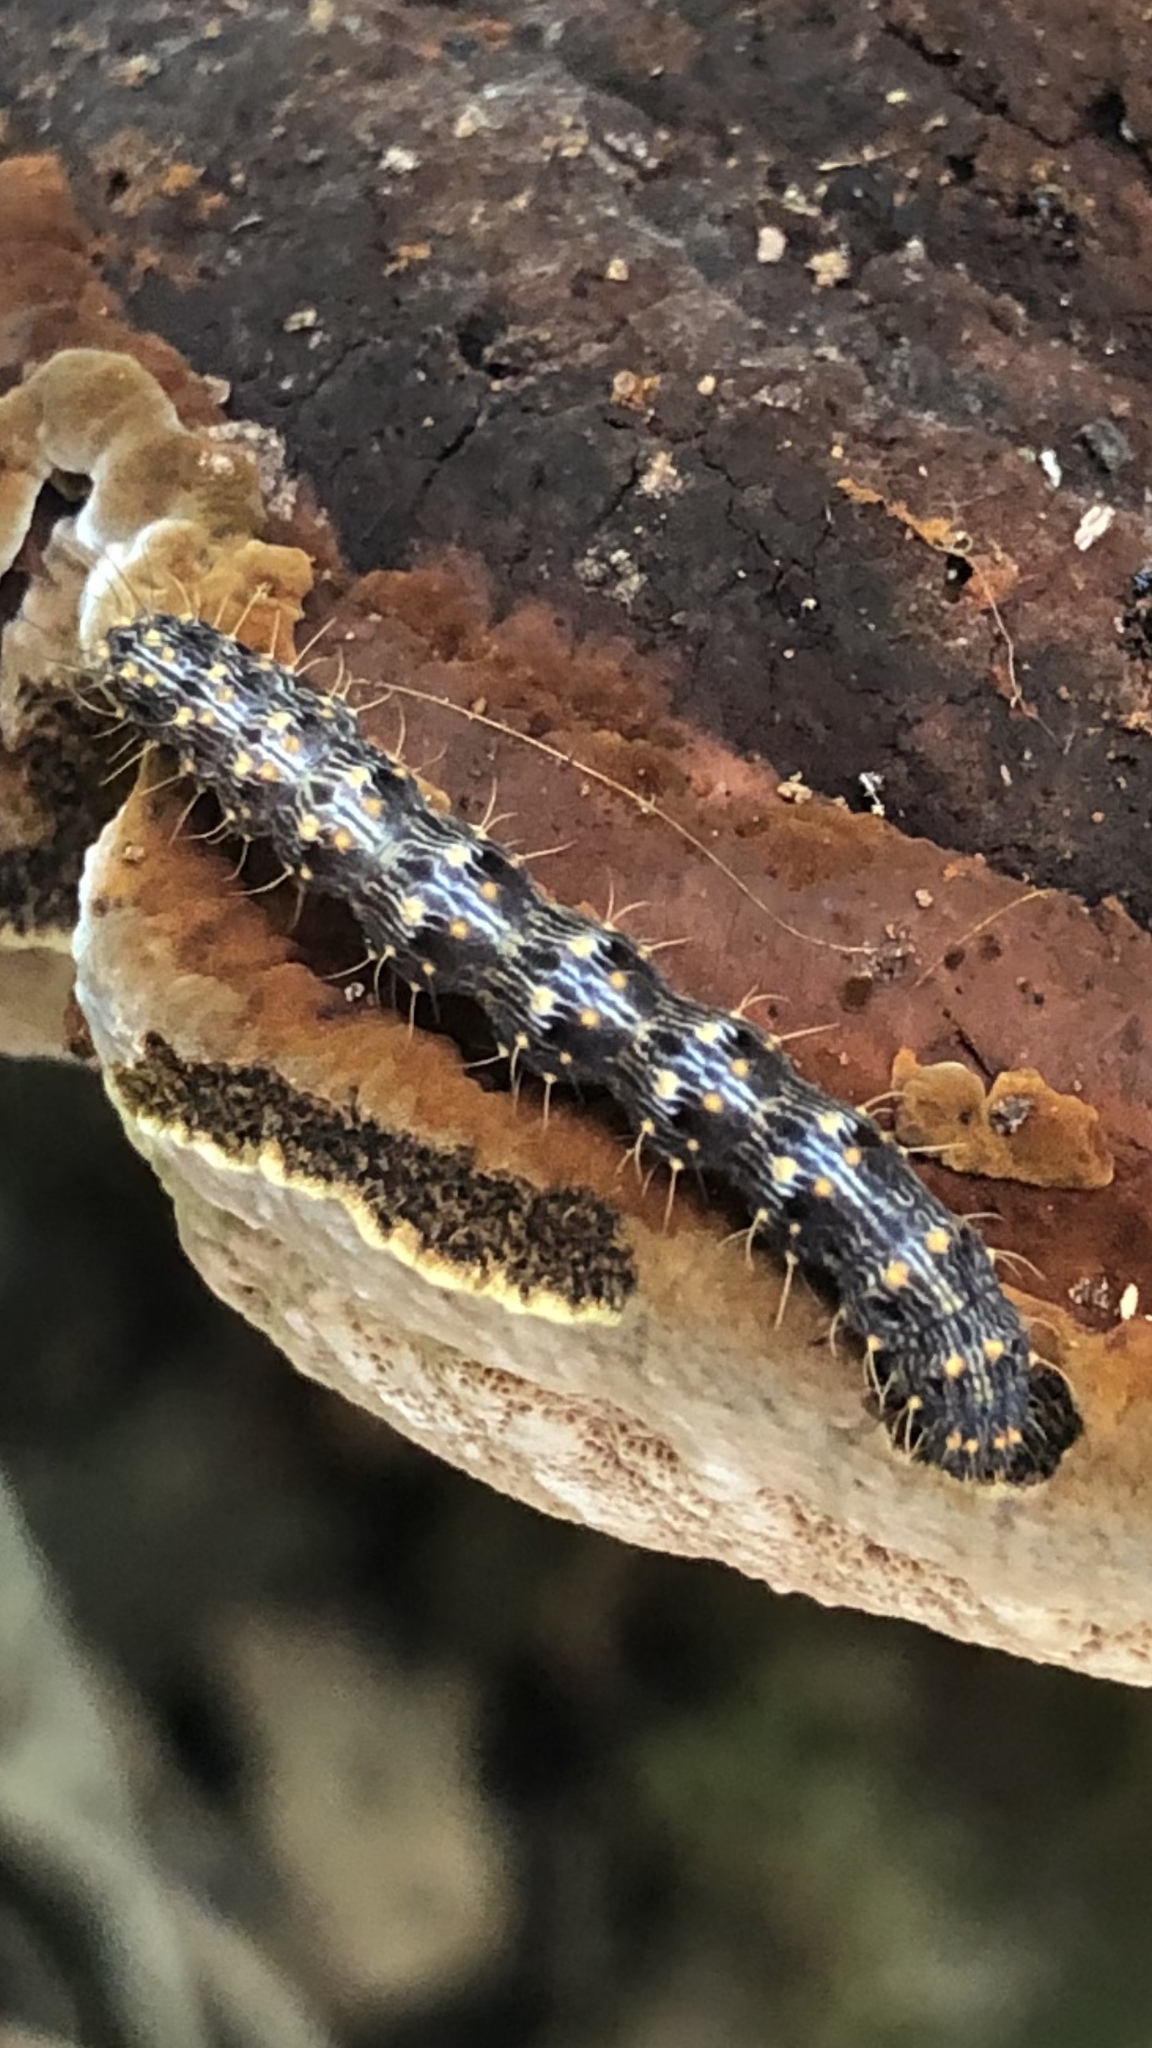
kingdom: Animalia
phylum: Arthropoda
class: Insecta
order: Lepidoptera
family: Erebidae
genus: Metalectra
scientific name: Metalectra discalis
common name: Common fungus moth
